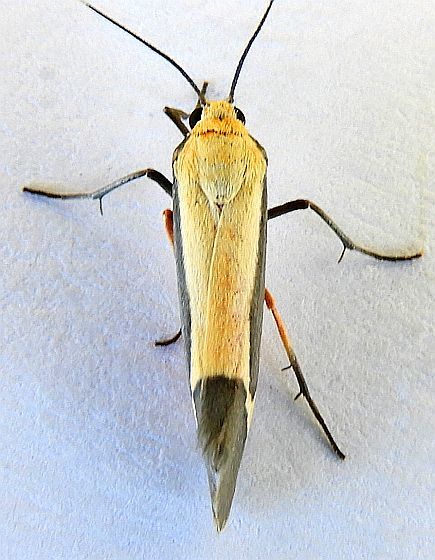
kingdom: Animalia
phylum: Arthropoda
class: Insecta
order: Lepidoptera
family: Erebidae
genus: Cisthene
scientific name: Cisthene angelus
